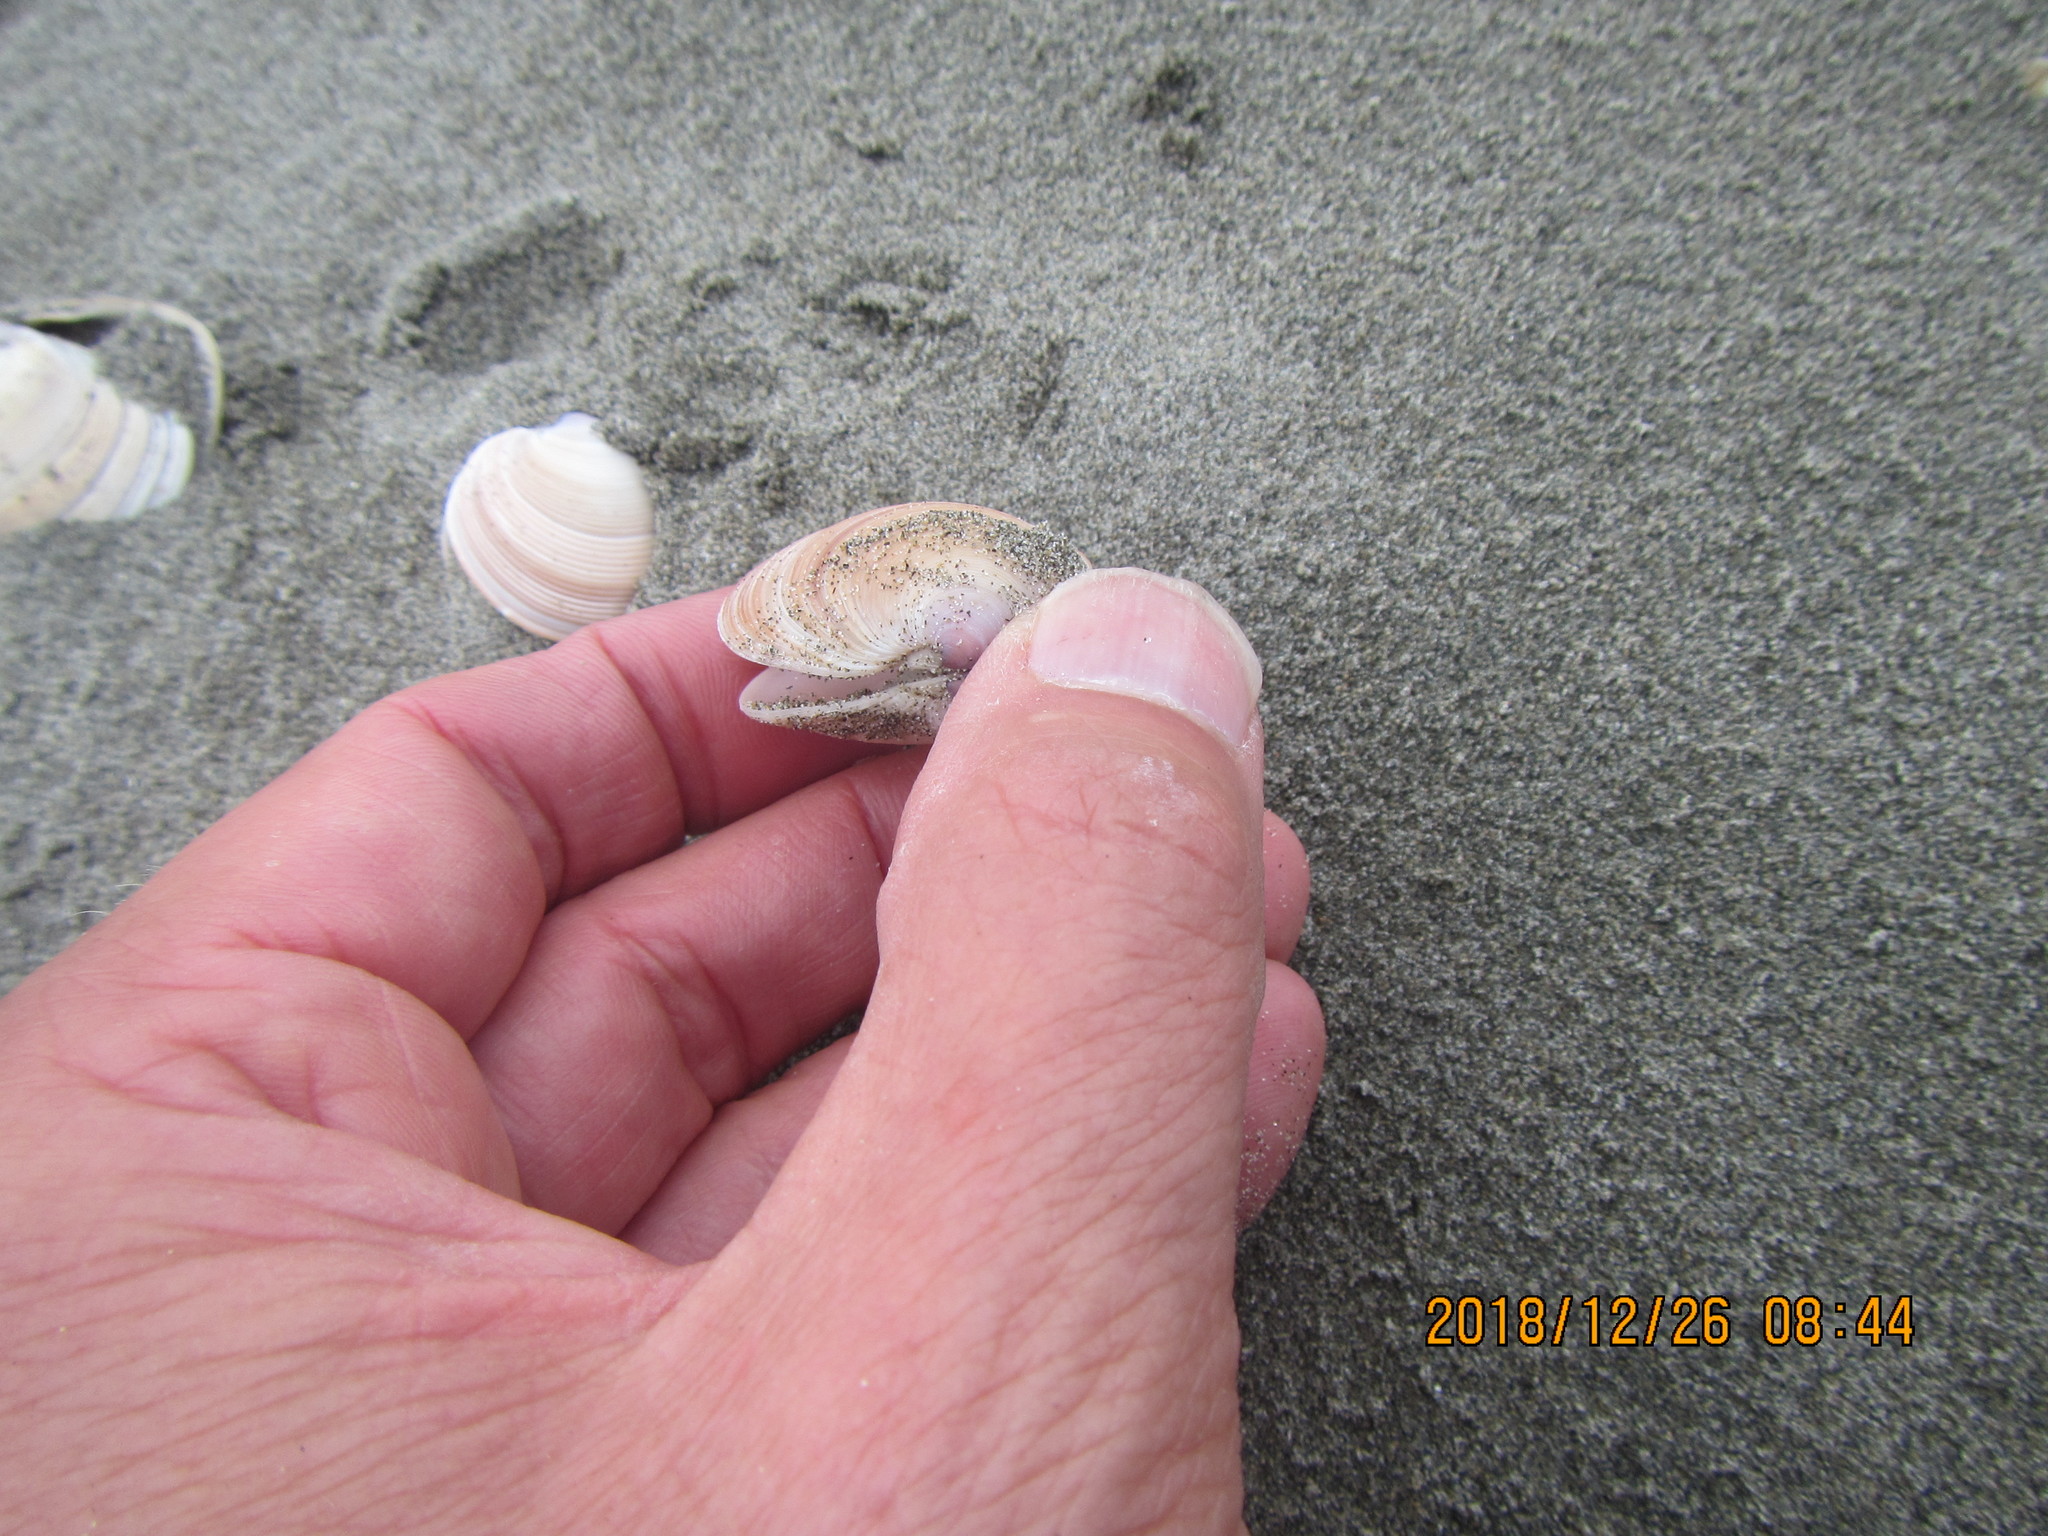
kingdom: Animalia
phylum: Mollusca
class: Bivalvia
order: Venerida
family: Veneridae
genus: Dosinia
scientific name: Dosinia anus
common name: Old-woman dosinia
